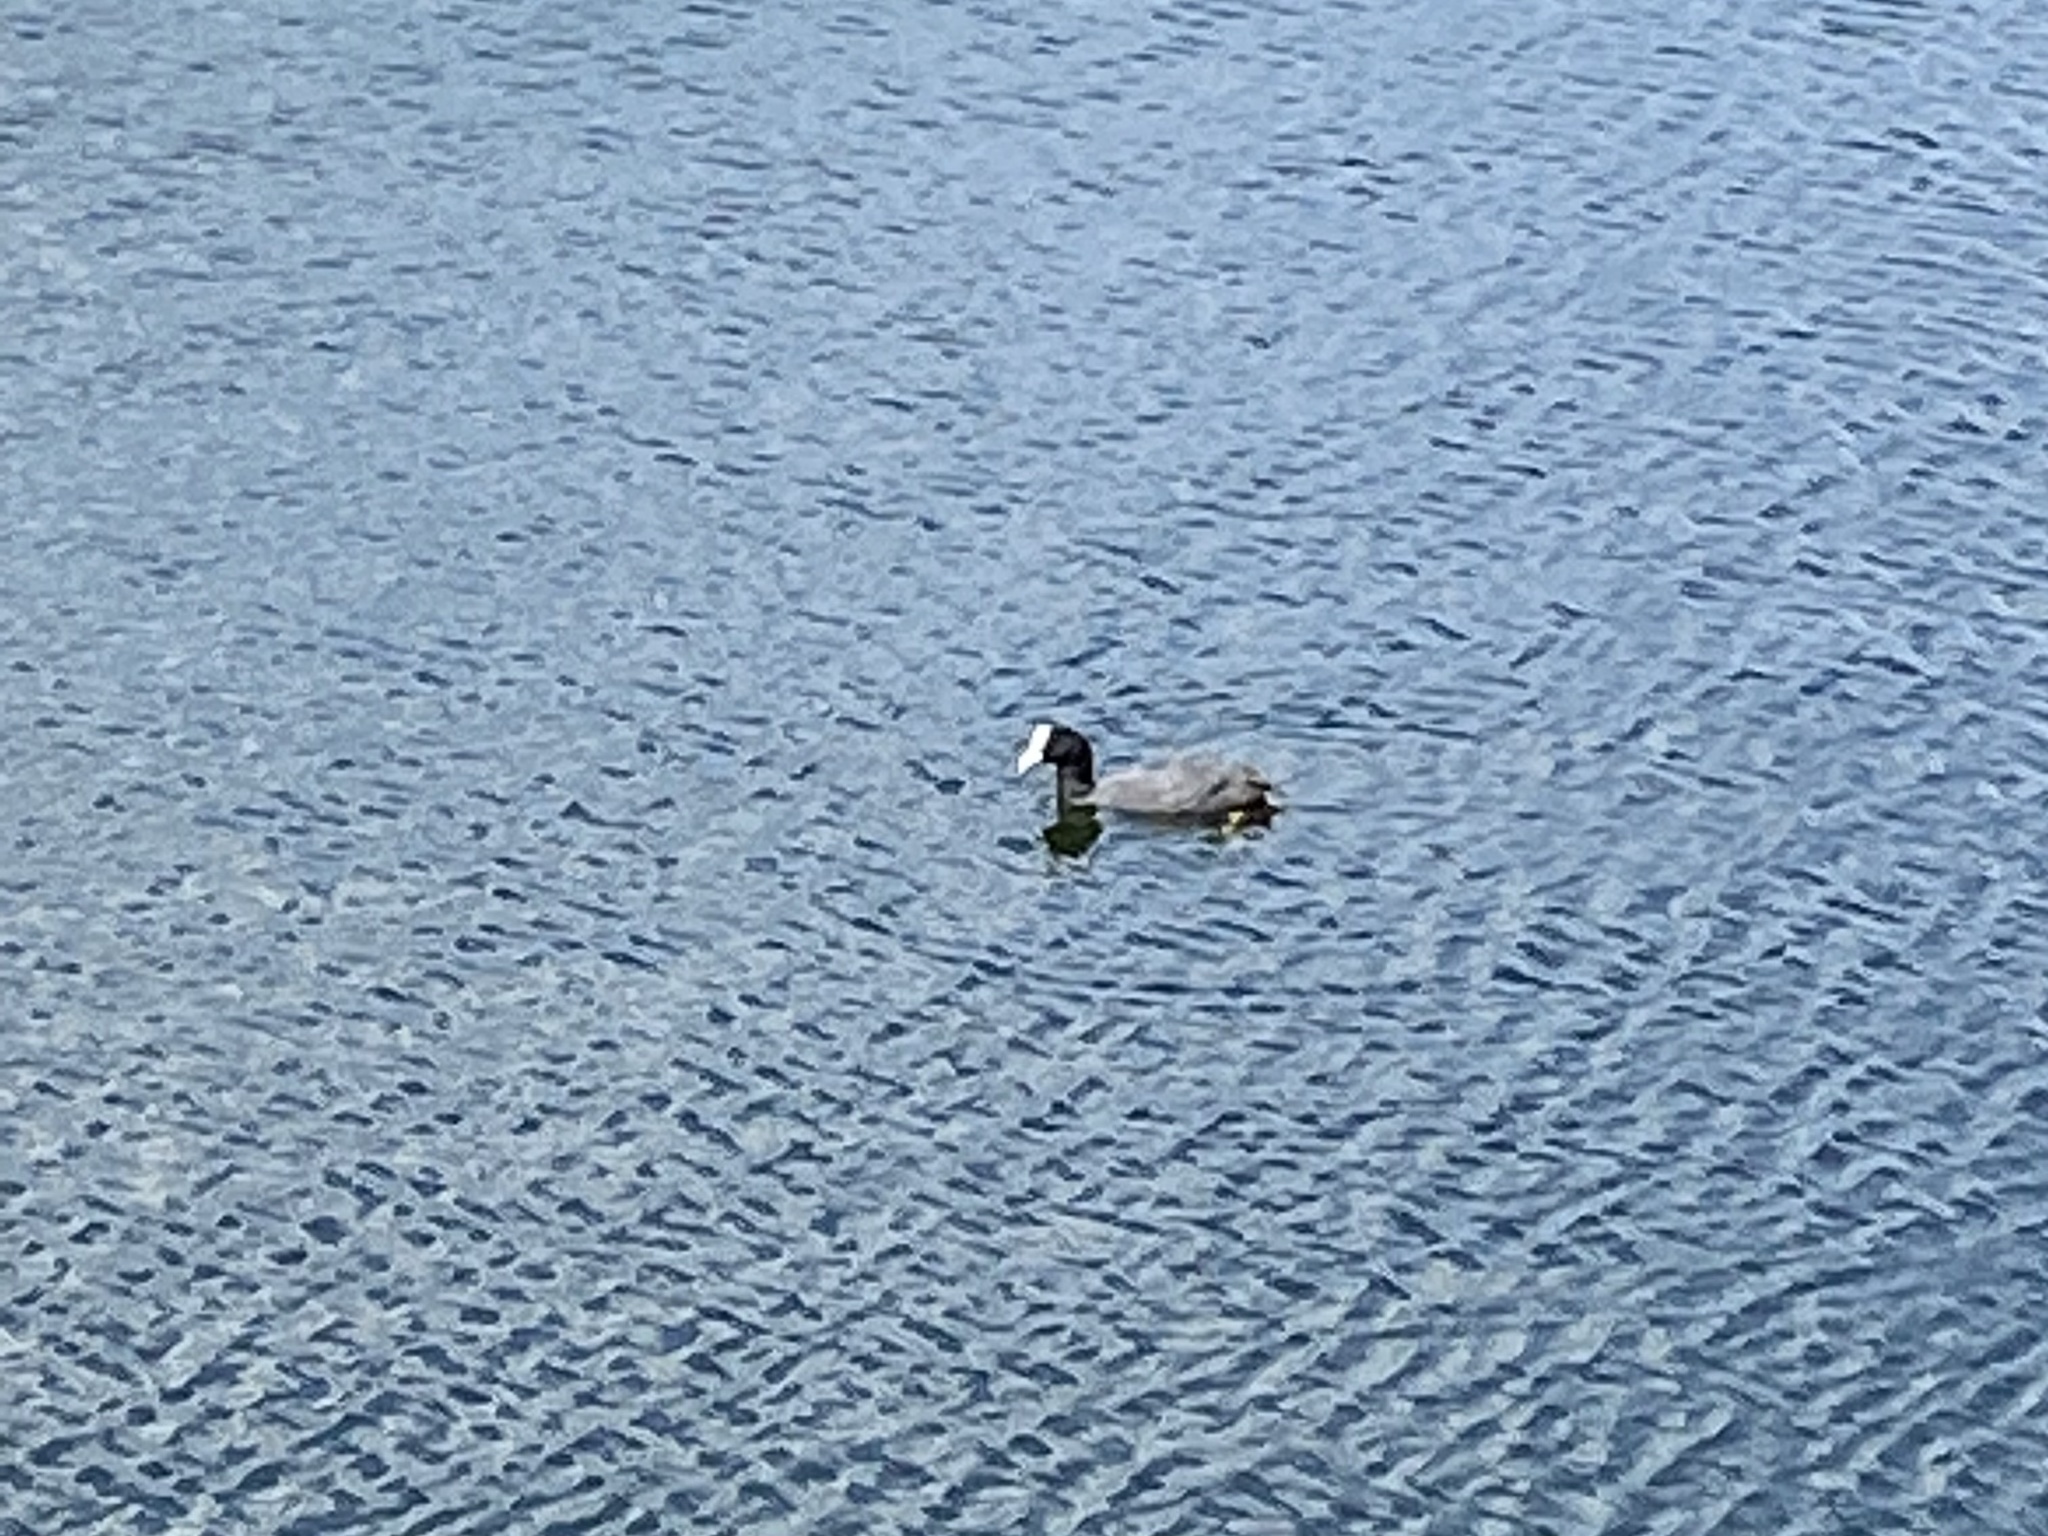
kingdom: Animalia
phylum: Chordata
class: Aves
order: Gruiformes
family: Rallidae
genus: Fulica
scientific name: Fulica atra
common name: Eurasian coot
